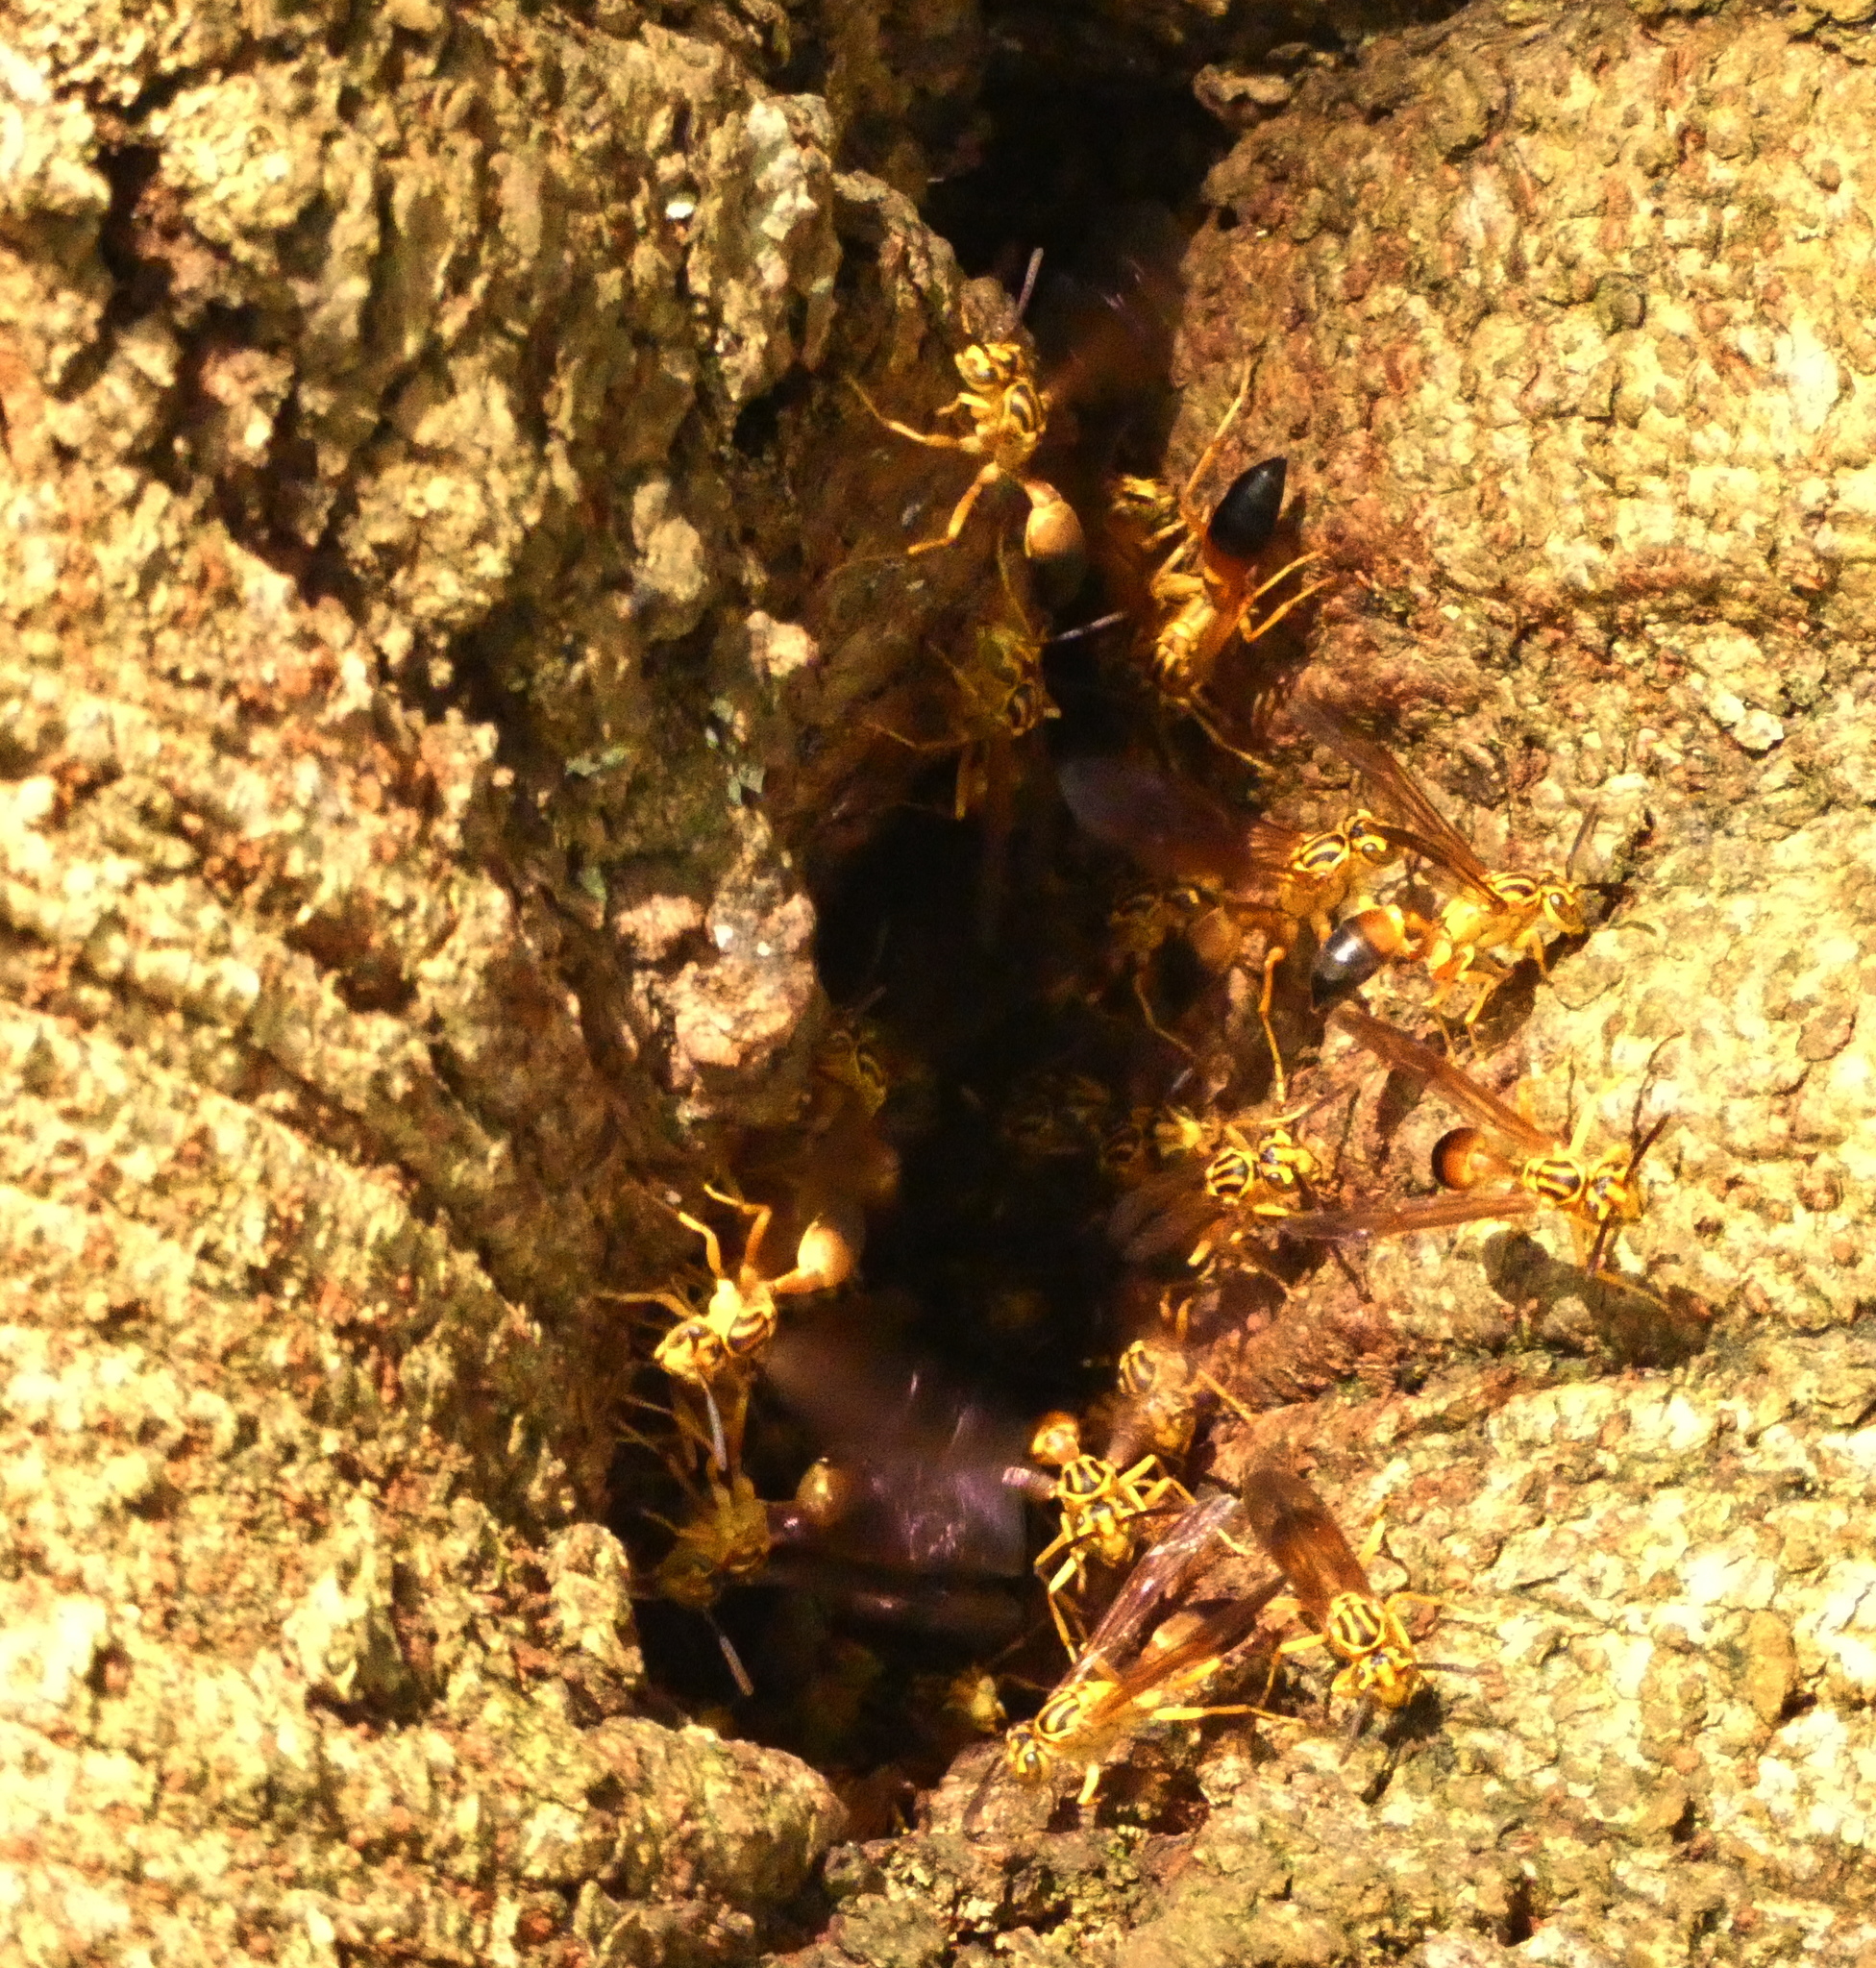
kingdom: Animalia
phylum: Arthropoda
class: Insecta
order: Hymenoptera
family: Vespidae
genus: Agelaia
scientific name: Agelaia pallipes
